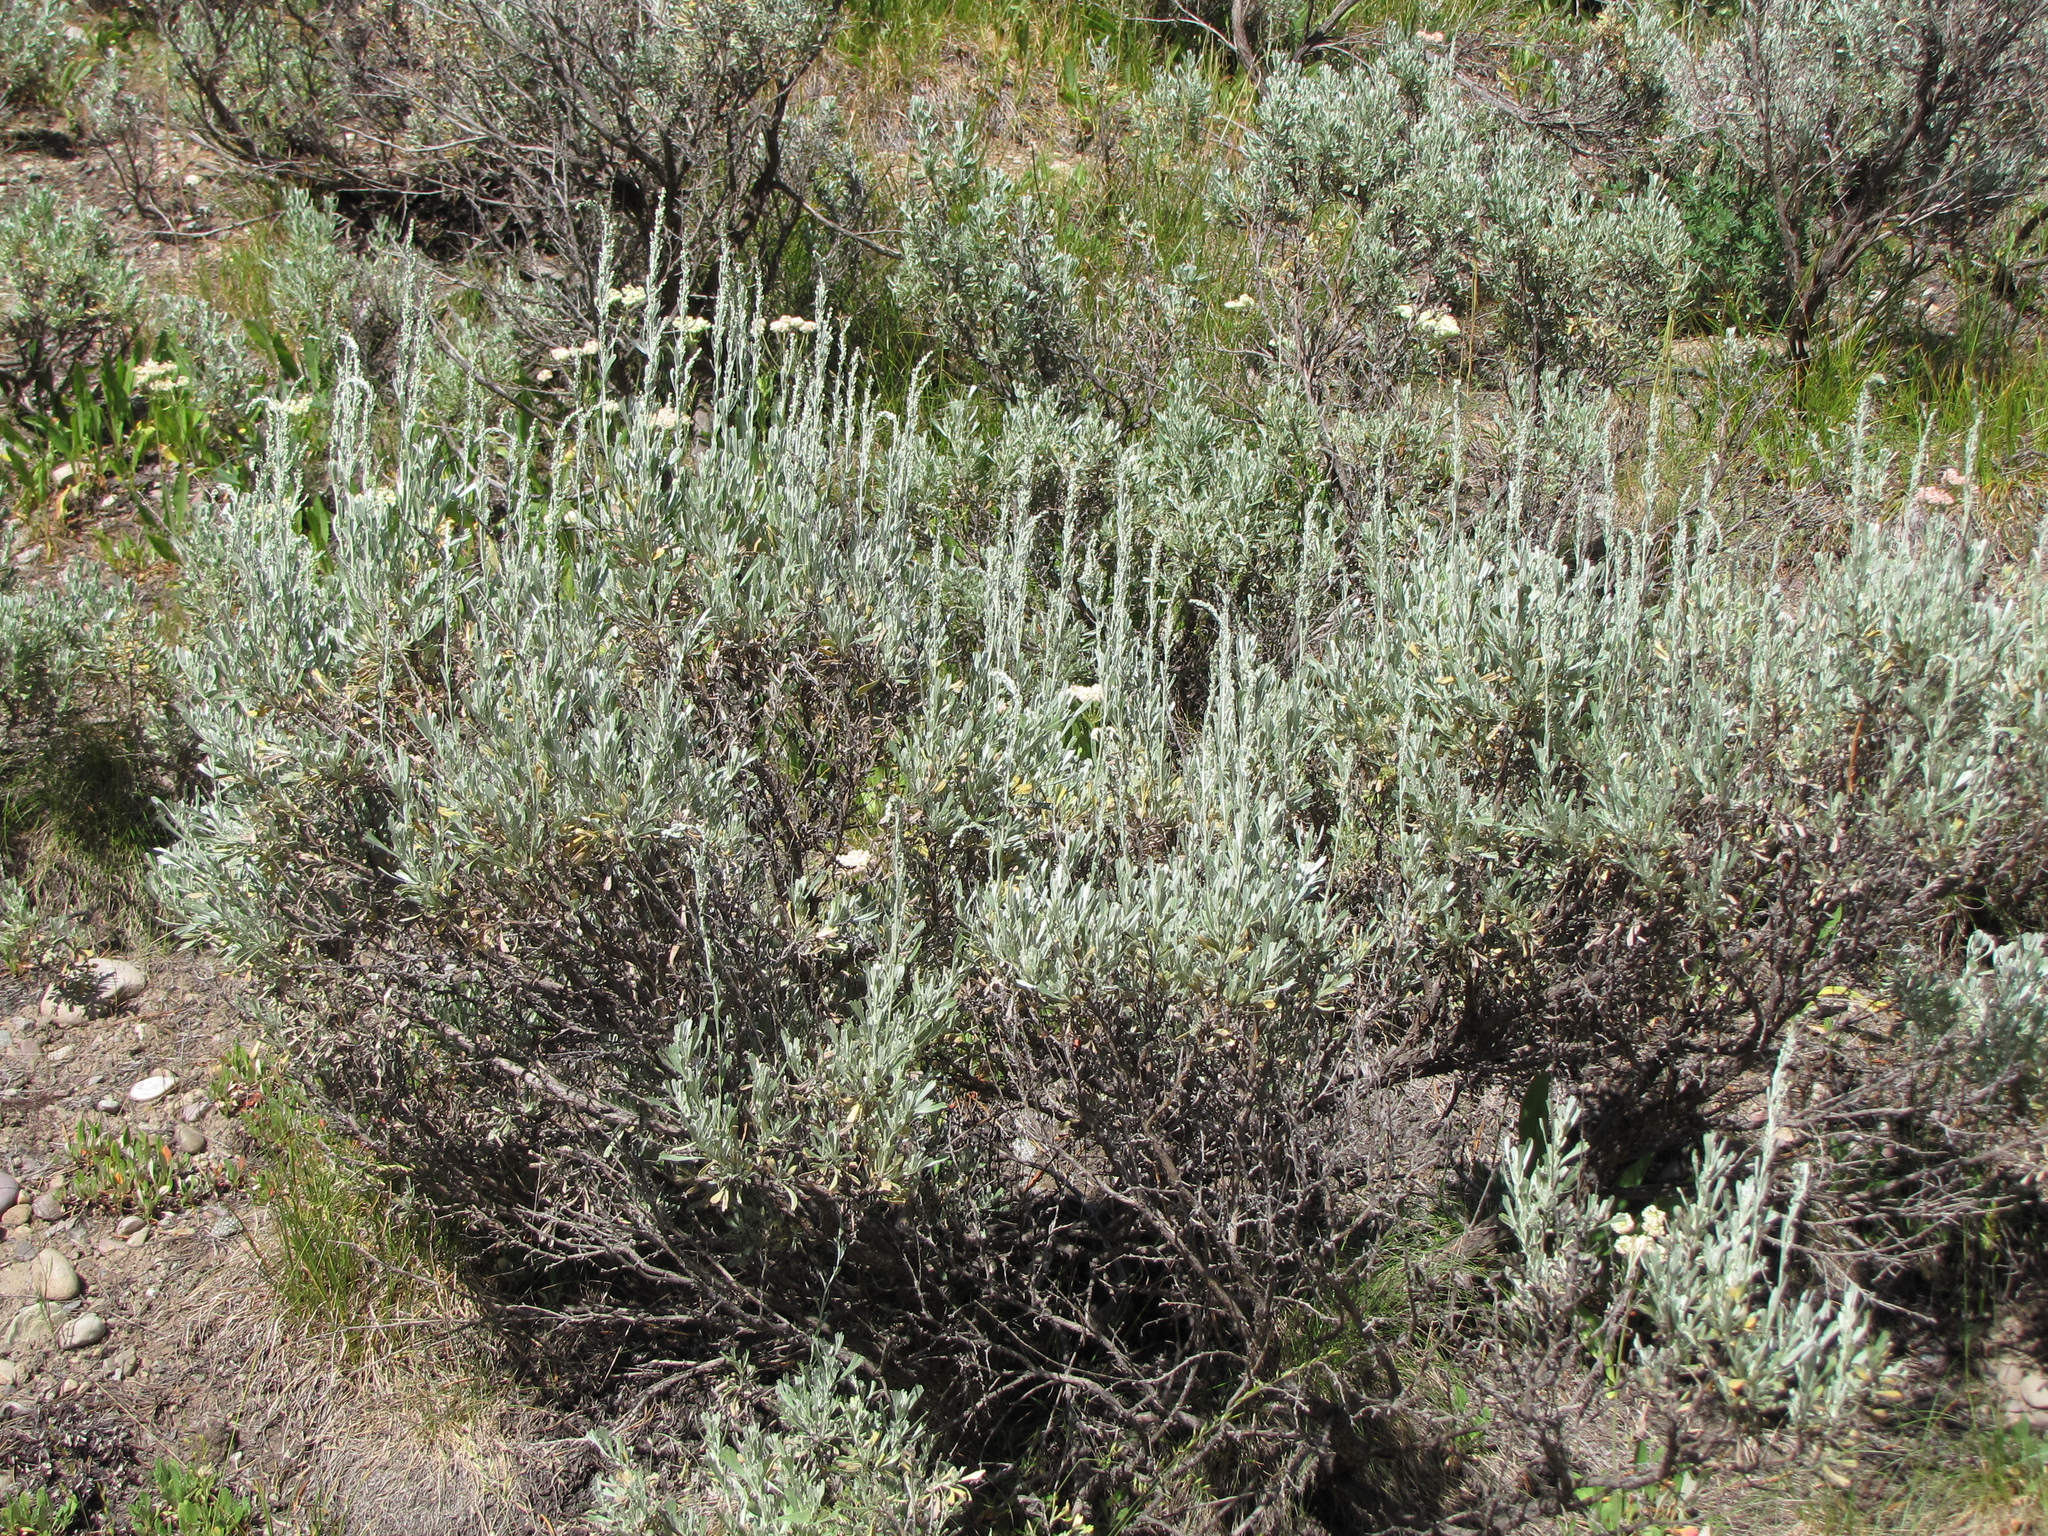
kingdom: Plantae
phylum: Tracheophyta
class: Magnoliopsida
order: Asterales
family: Asteraceae
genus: Artemisia
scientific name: Artemisia tridentata
